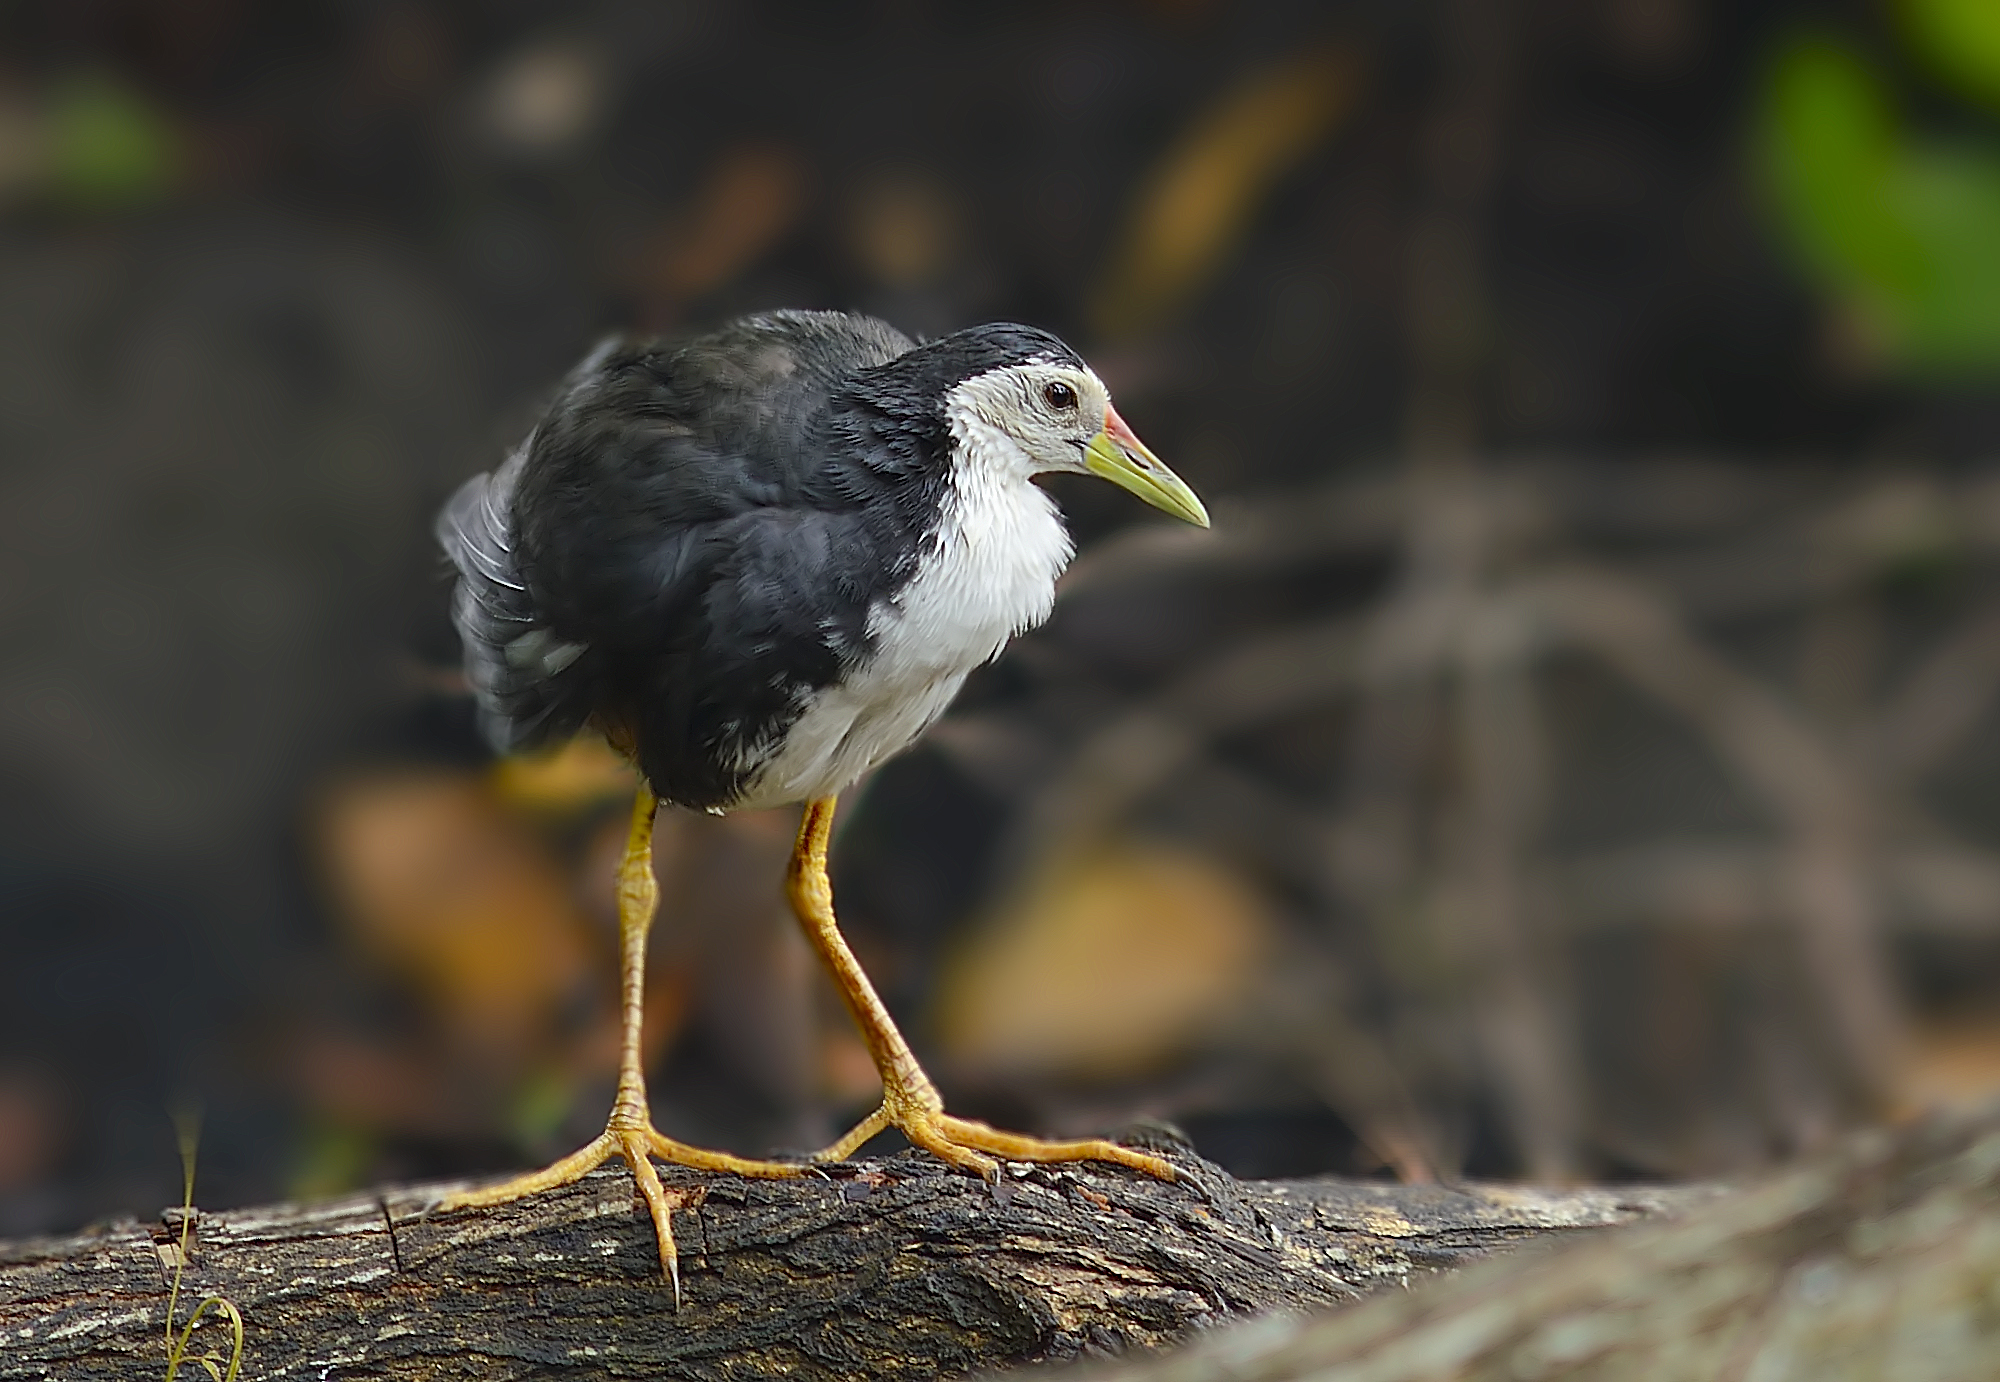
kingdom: Animalia
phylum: Chordata
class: Aves
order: Gruiformes
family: Rallidae
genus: Amaurornis
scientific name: Amaurornis phoenicurus
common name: White-breasted waterhen
